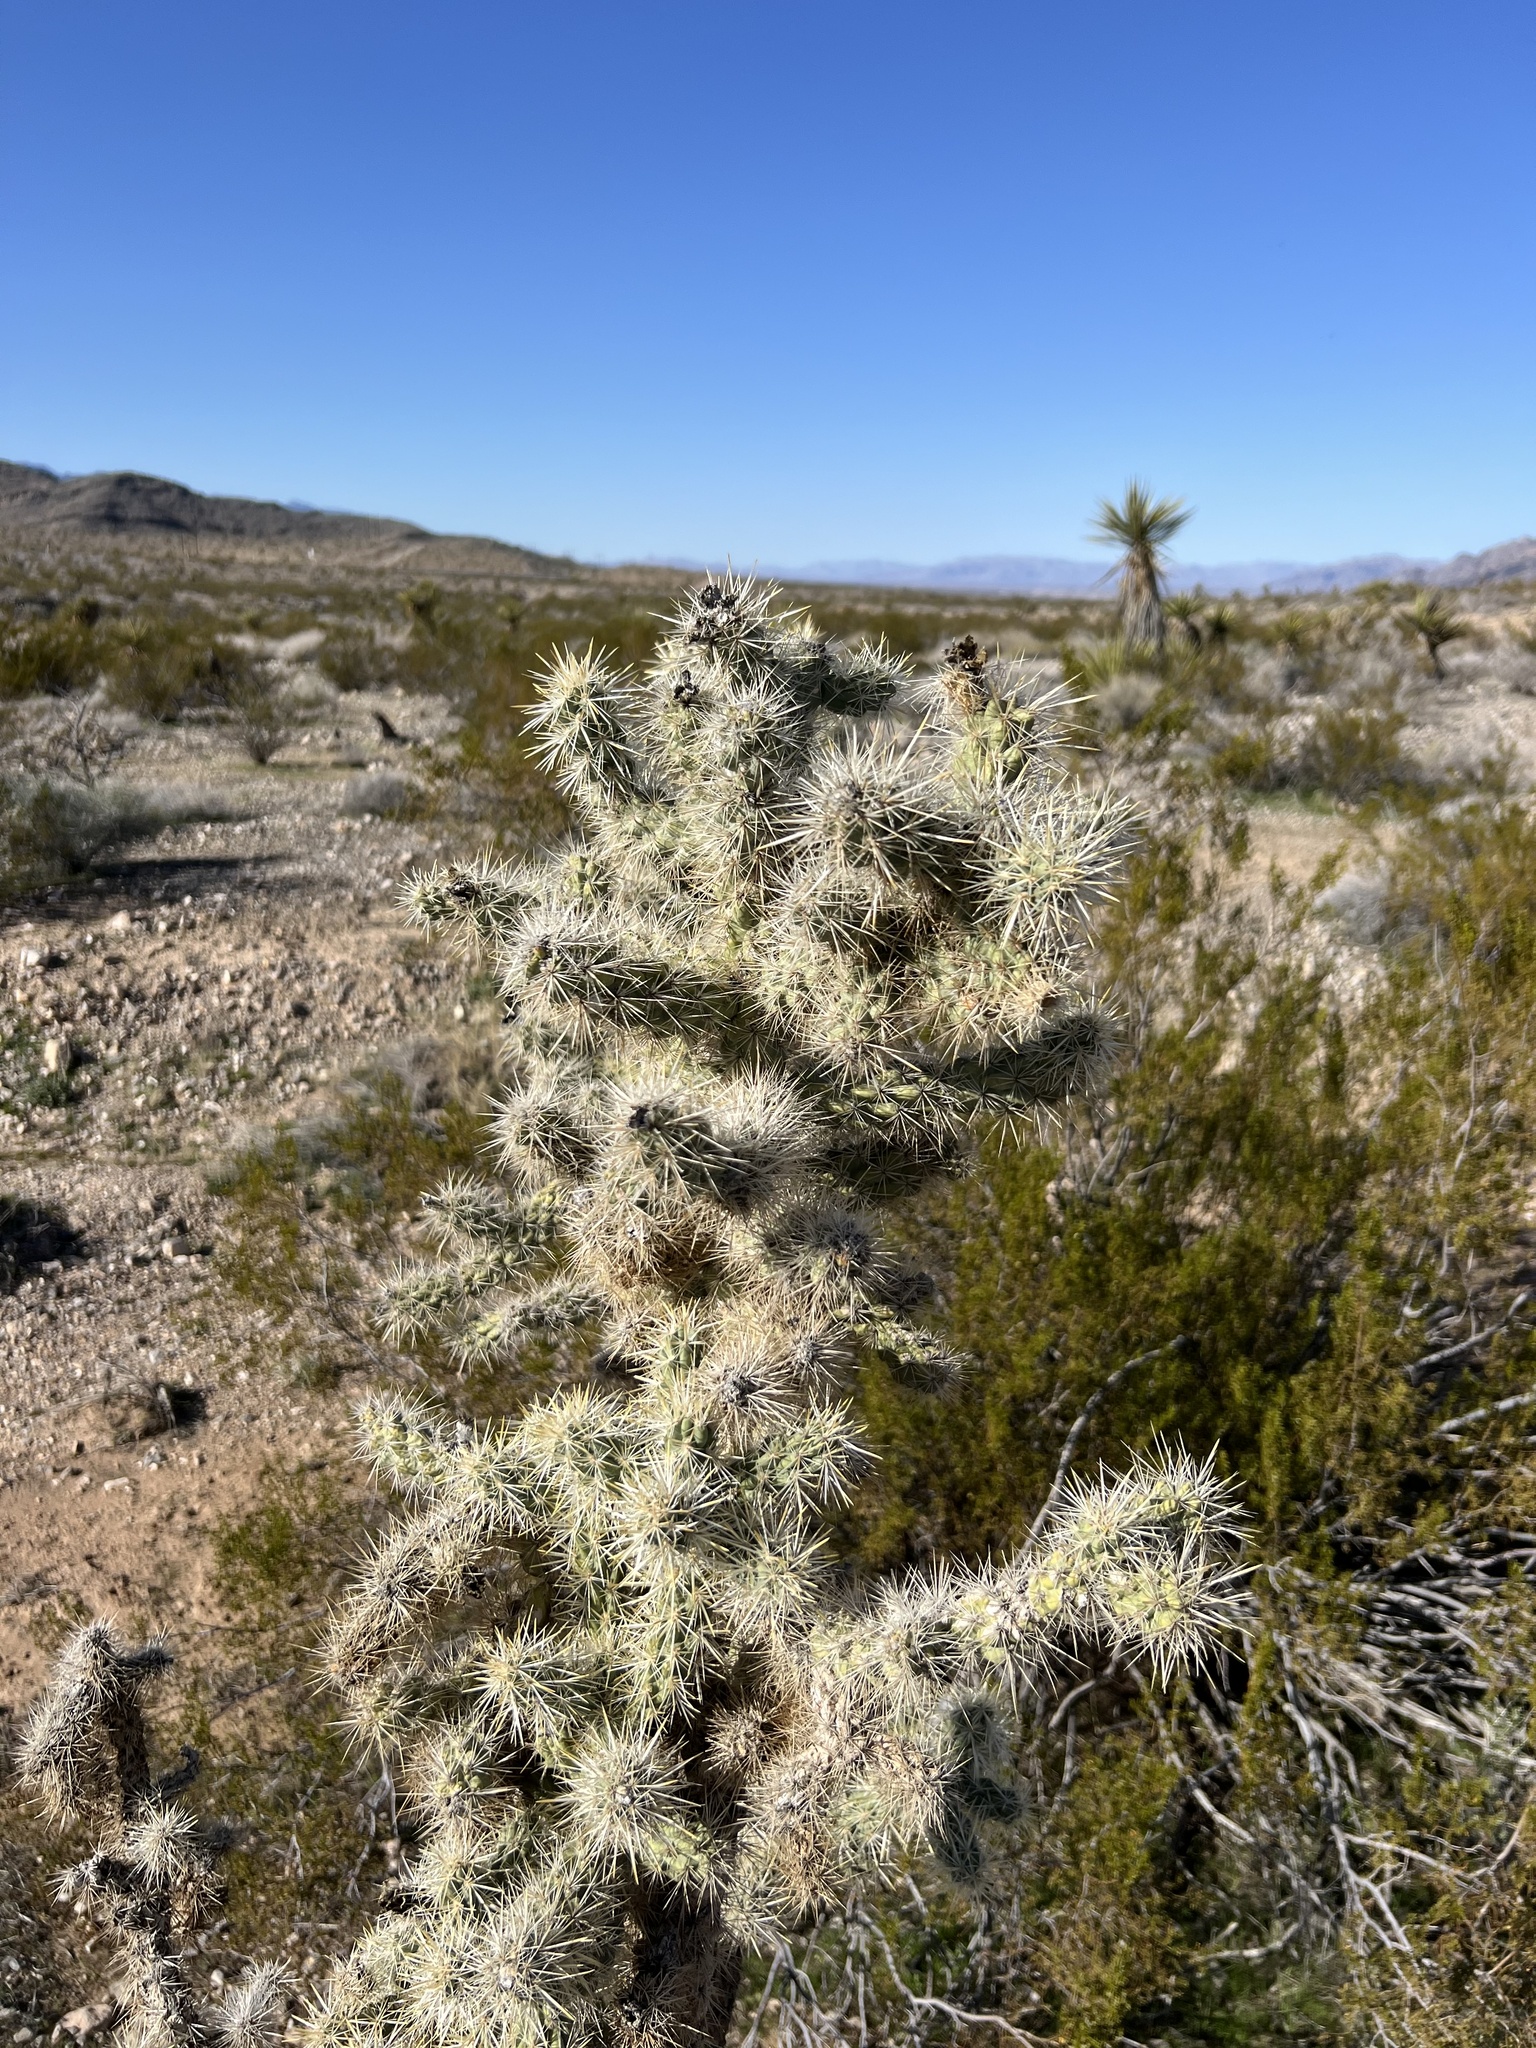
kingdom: Plantae
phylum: Tracheophyta
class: Magnoliopsida
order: Caryophyllales
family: Cactaceae
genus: Cylindropuntia
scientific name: Cylindropuntia echinocarpa
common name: Ground cholla
